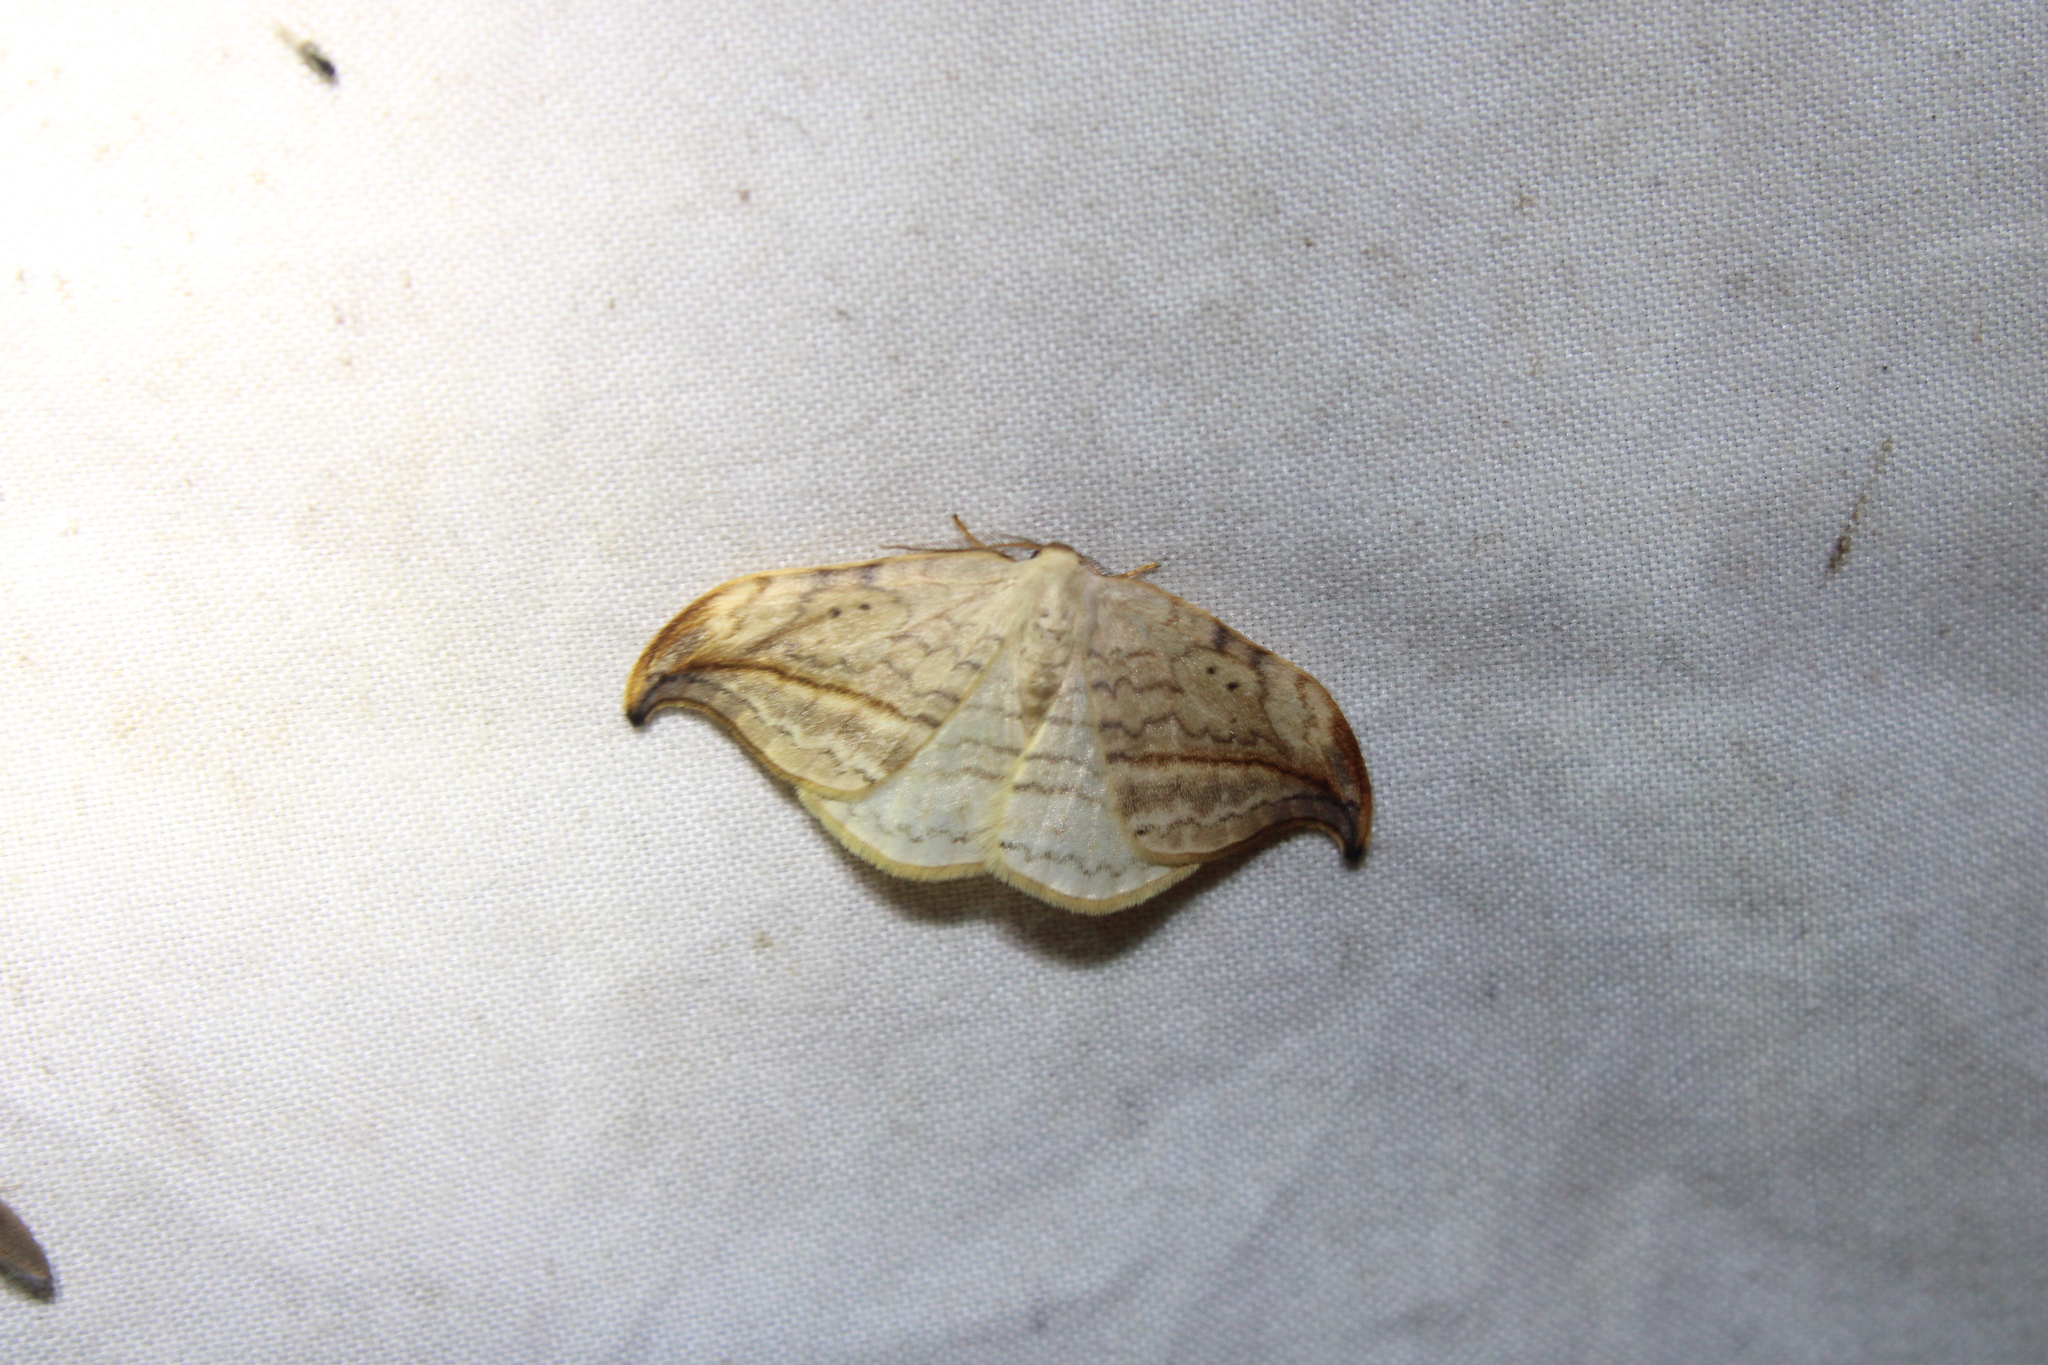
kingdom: Animalia
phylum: Arthropoda
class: Insecta
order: Lepidoptera
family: Drepanidae
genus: Drepana
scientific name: Drepana arcuata
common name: Arched hooktip moth
